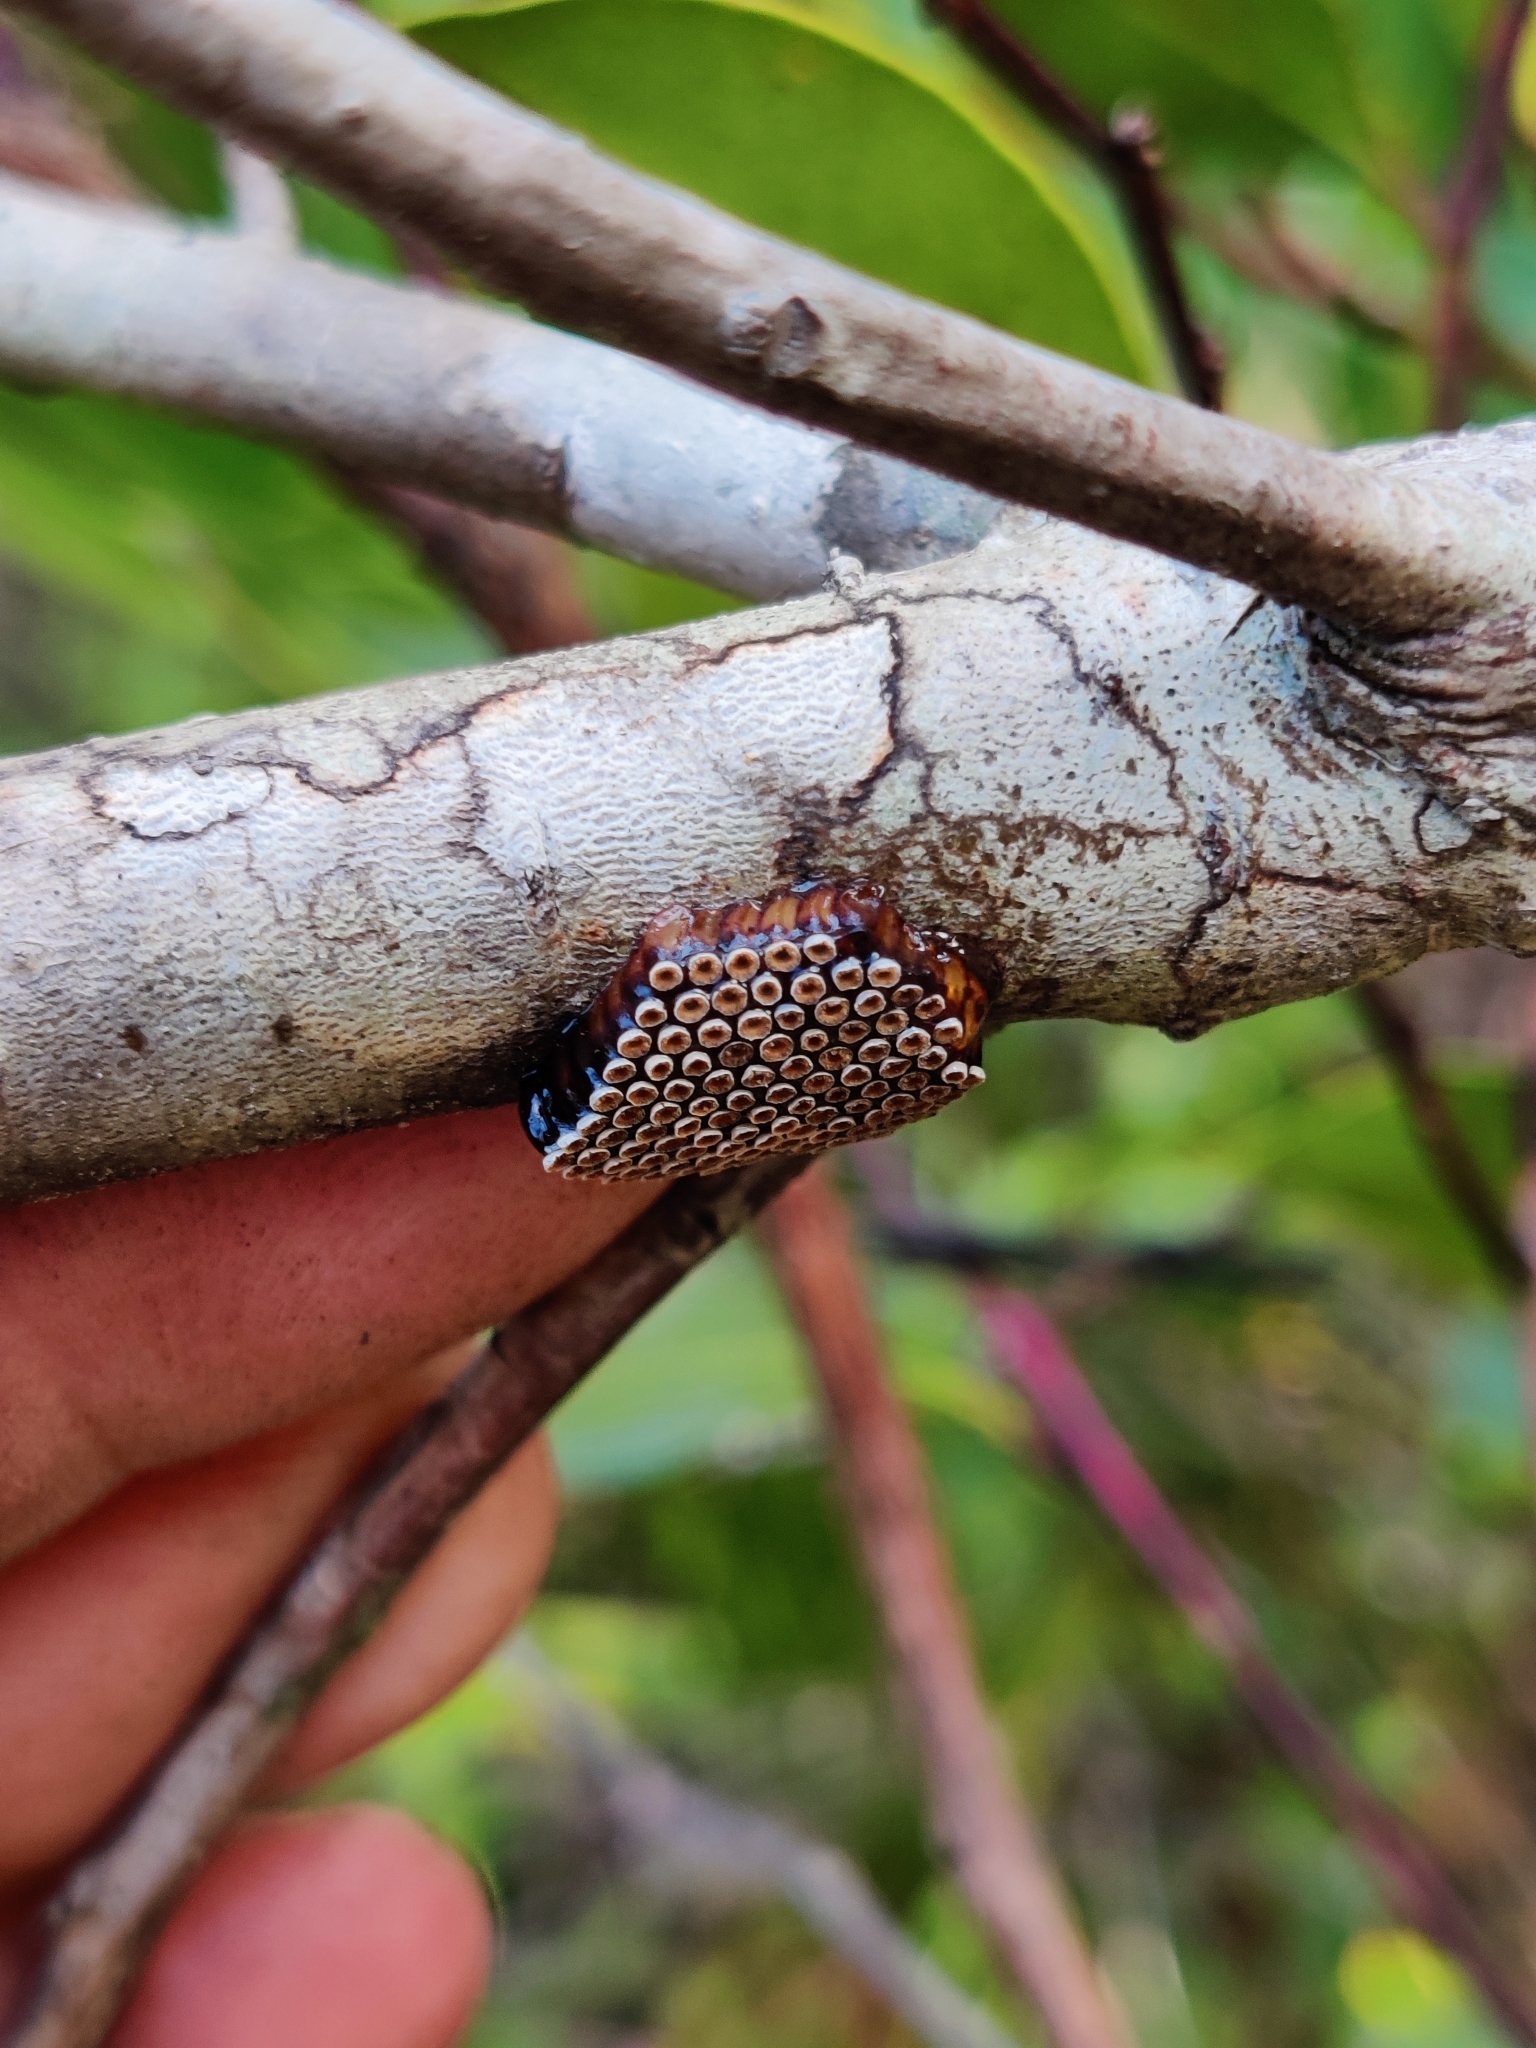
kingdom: Animalia
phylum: Arthropoda
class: Insecta
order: Hemiptera
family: Reduviidae
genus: Arilus
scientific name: Arilus cristatus
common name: North american wheel bug
